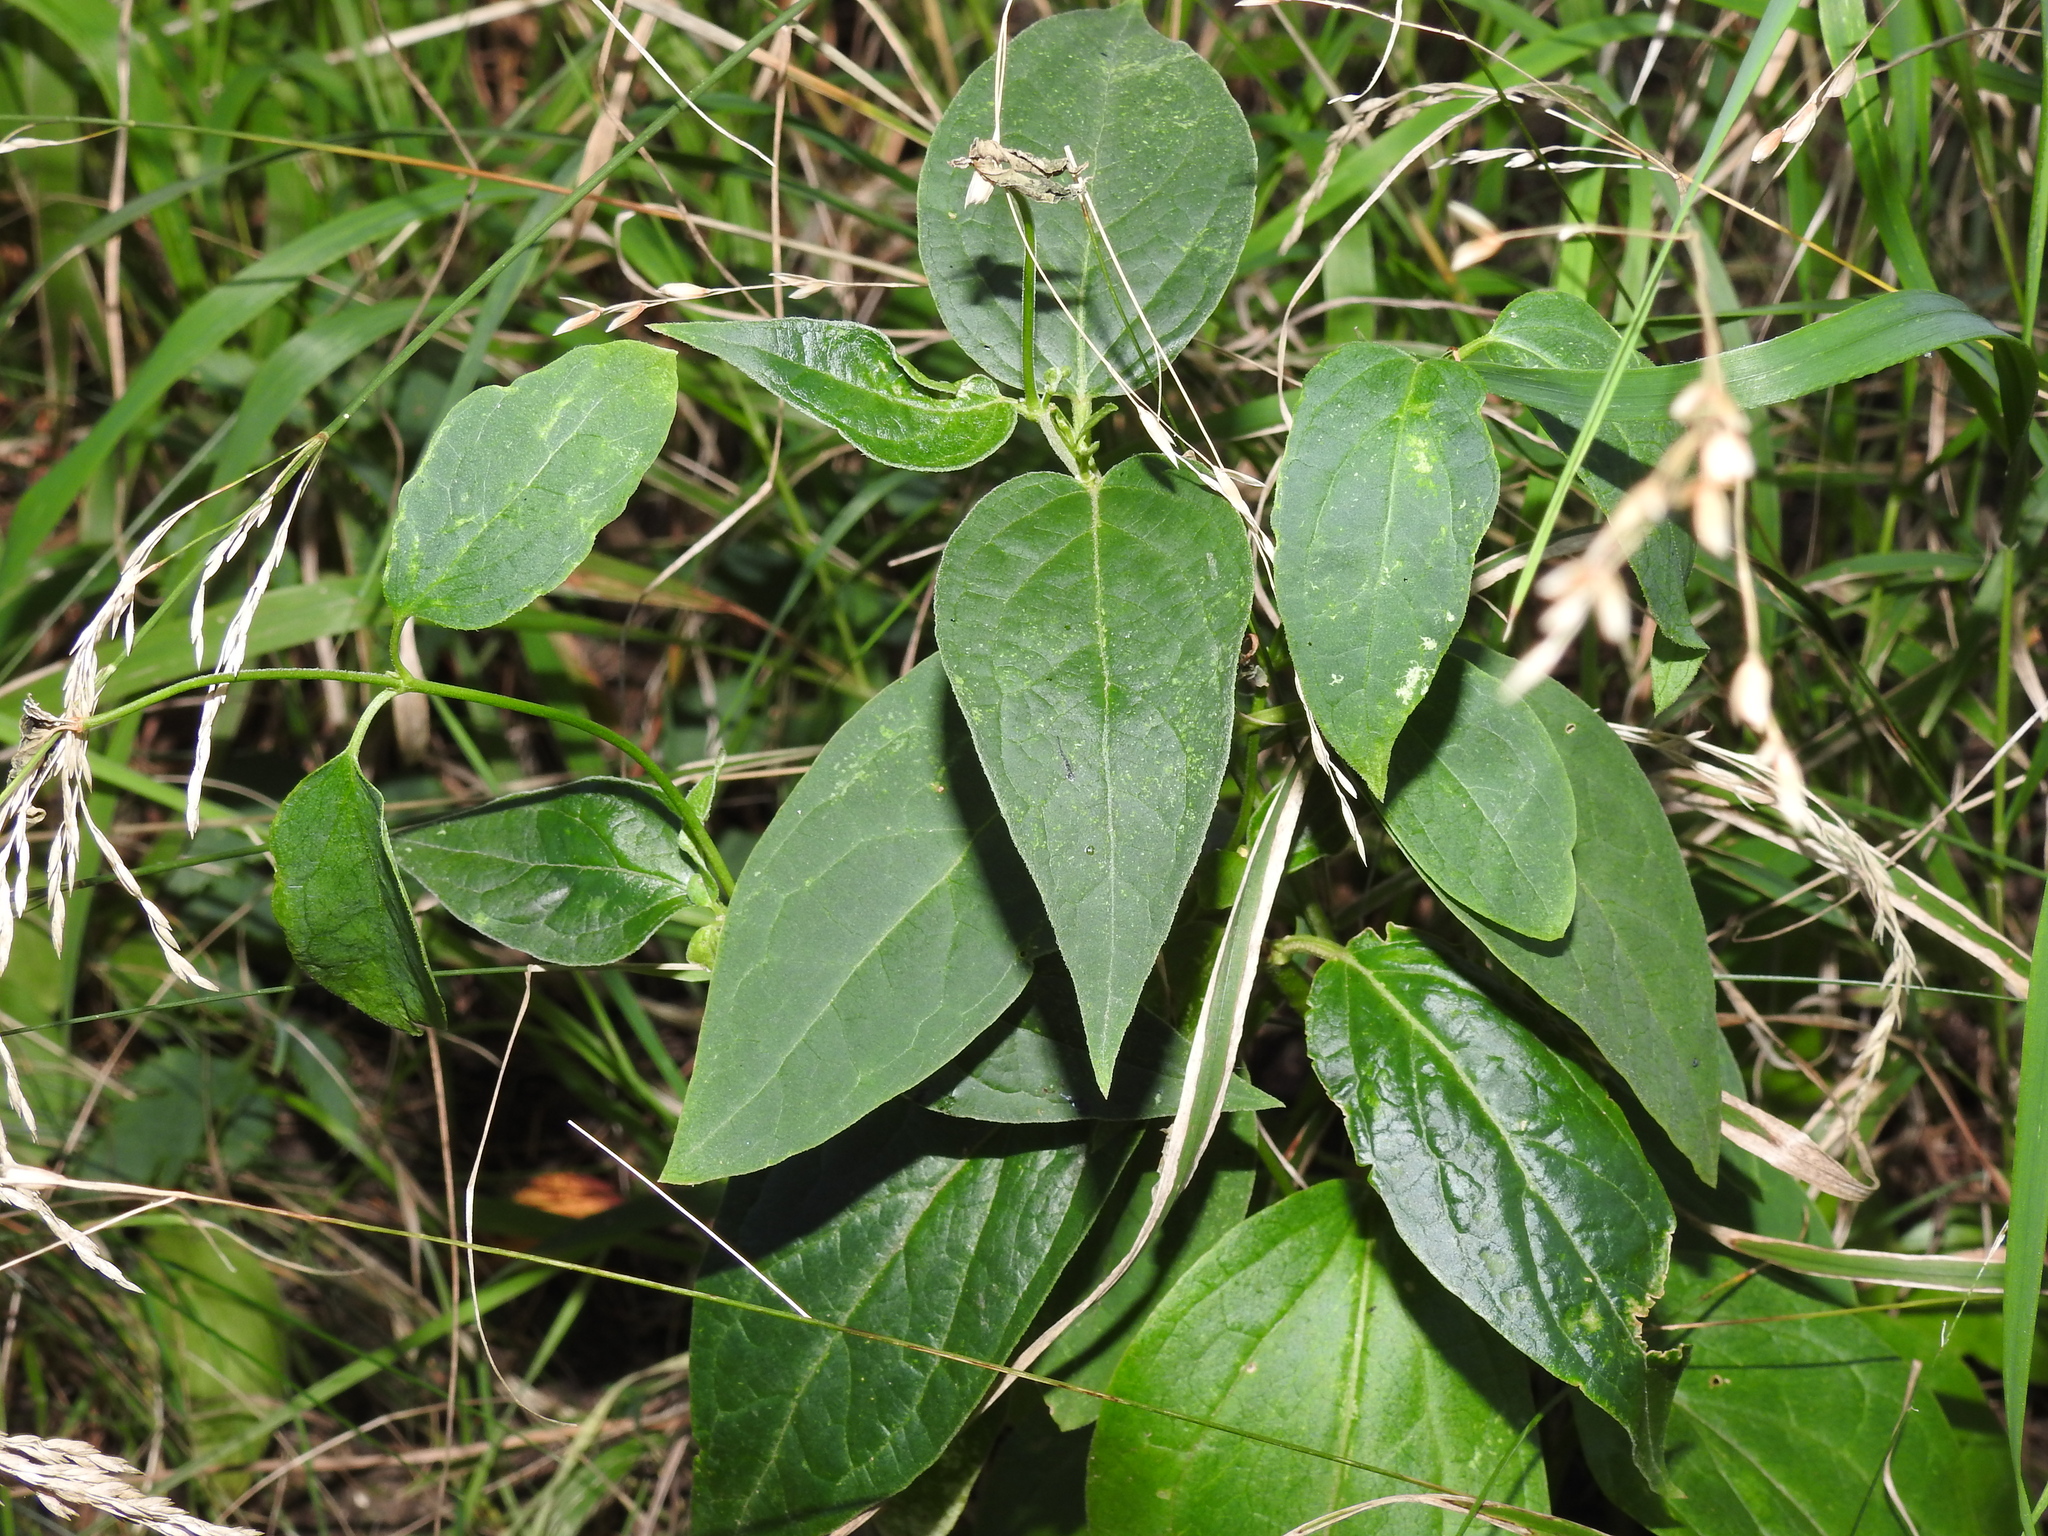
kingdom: Plantae
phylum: Tracheophyta
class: Magnoliopsida
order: Gentianales
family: Apocynaceae
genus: Vincetoxicum
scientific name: Vincetoxicum hirundinaria
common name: White swallowwort
